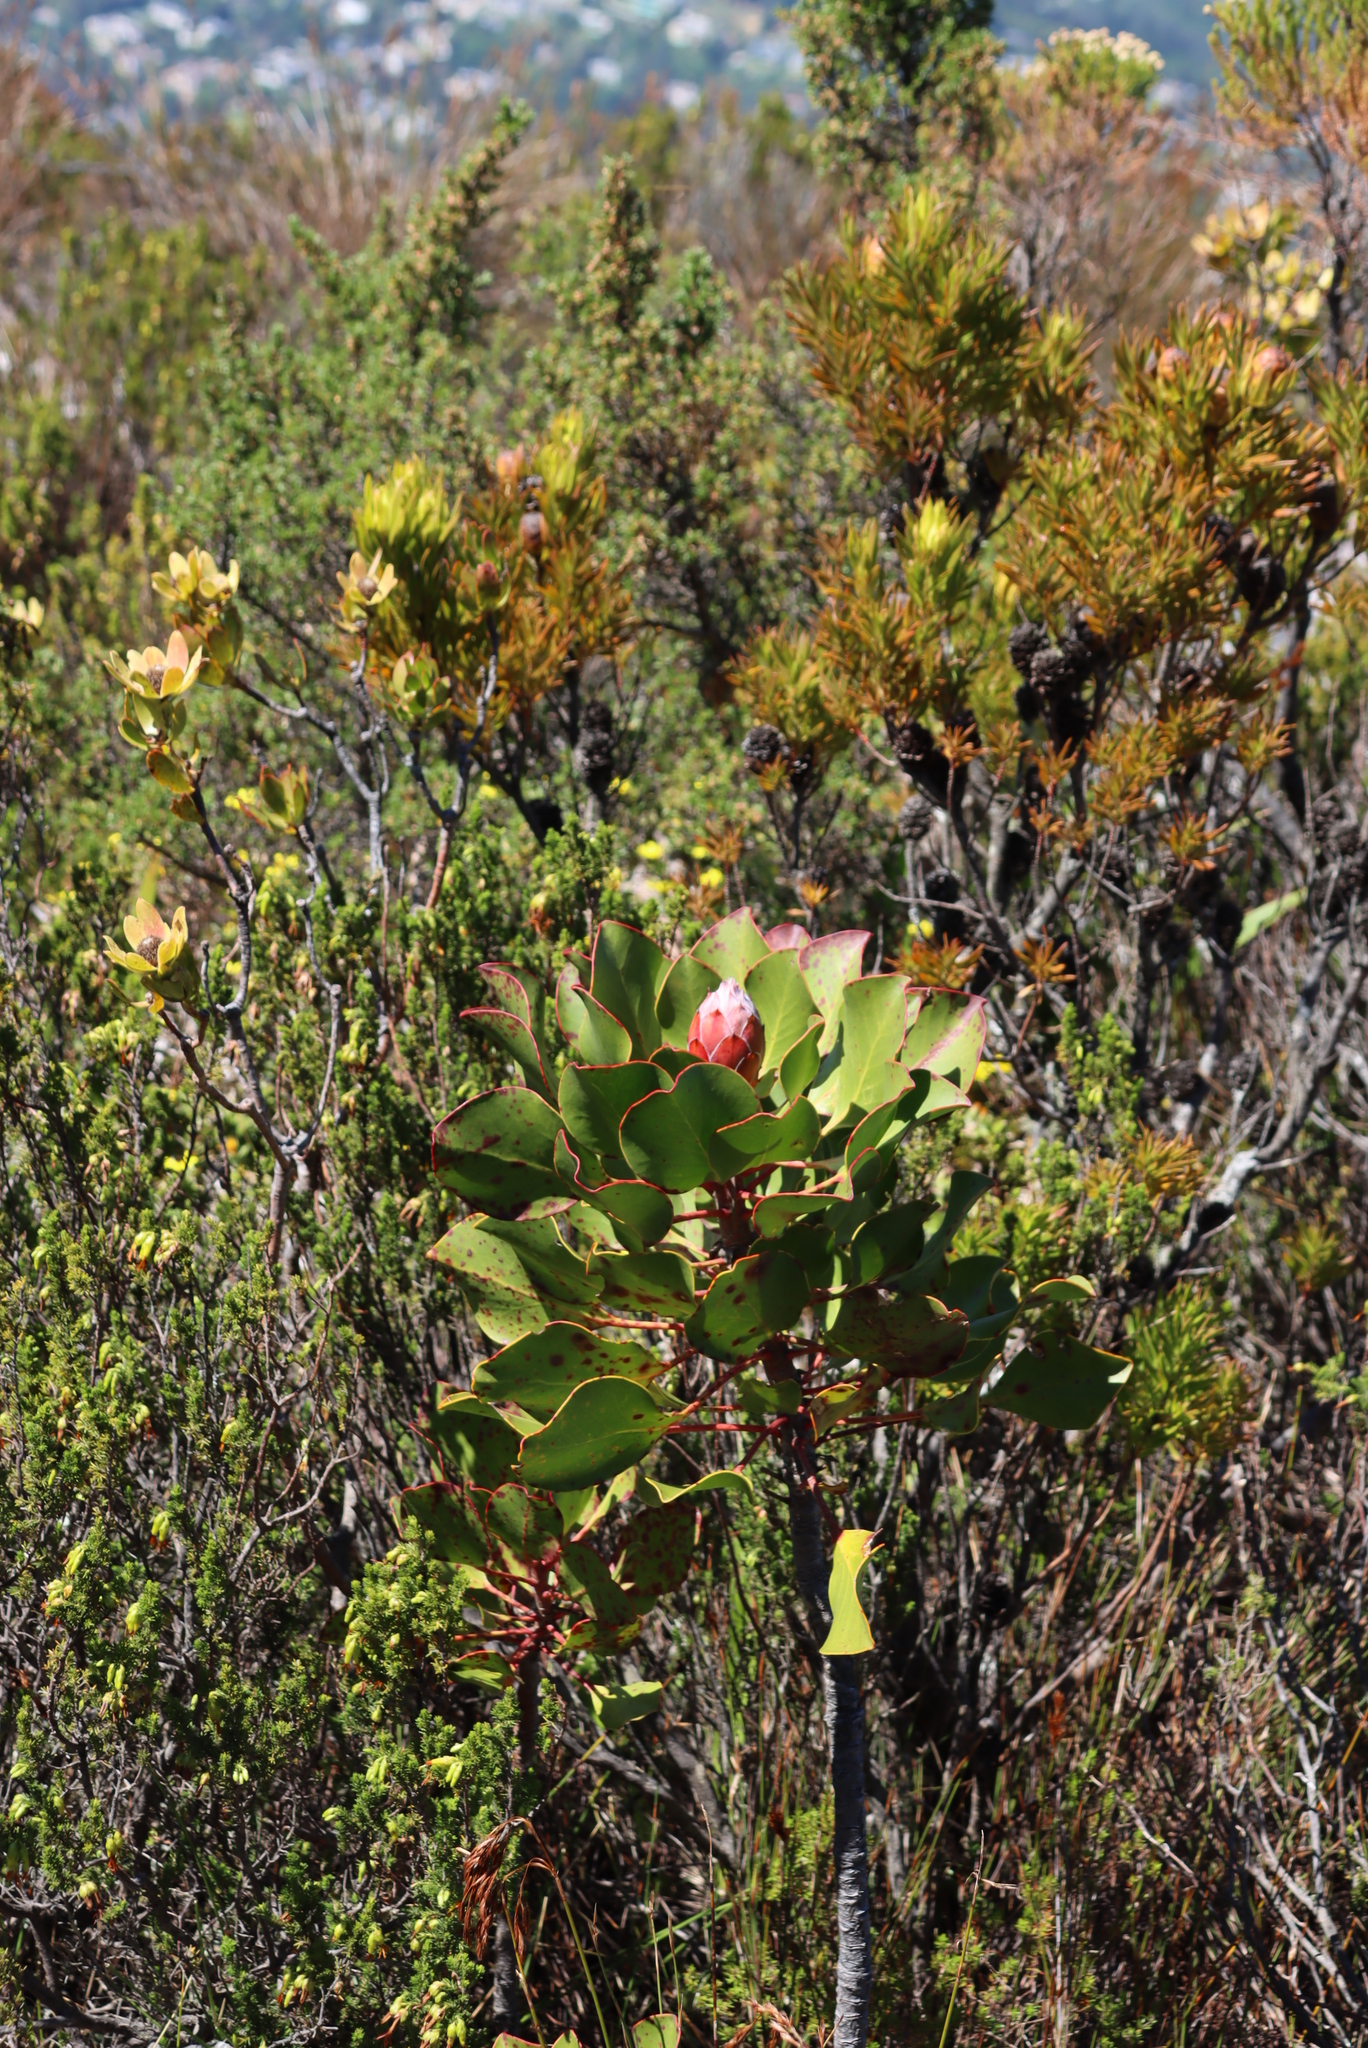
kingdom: Plantae
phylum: Tracheophyta
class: Magnoliopsida
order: Proteales
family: Proteaceae
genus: Protea
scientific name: Protea cynaroides
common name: King protea
